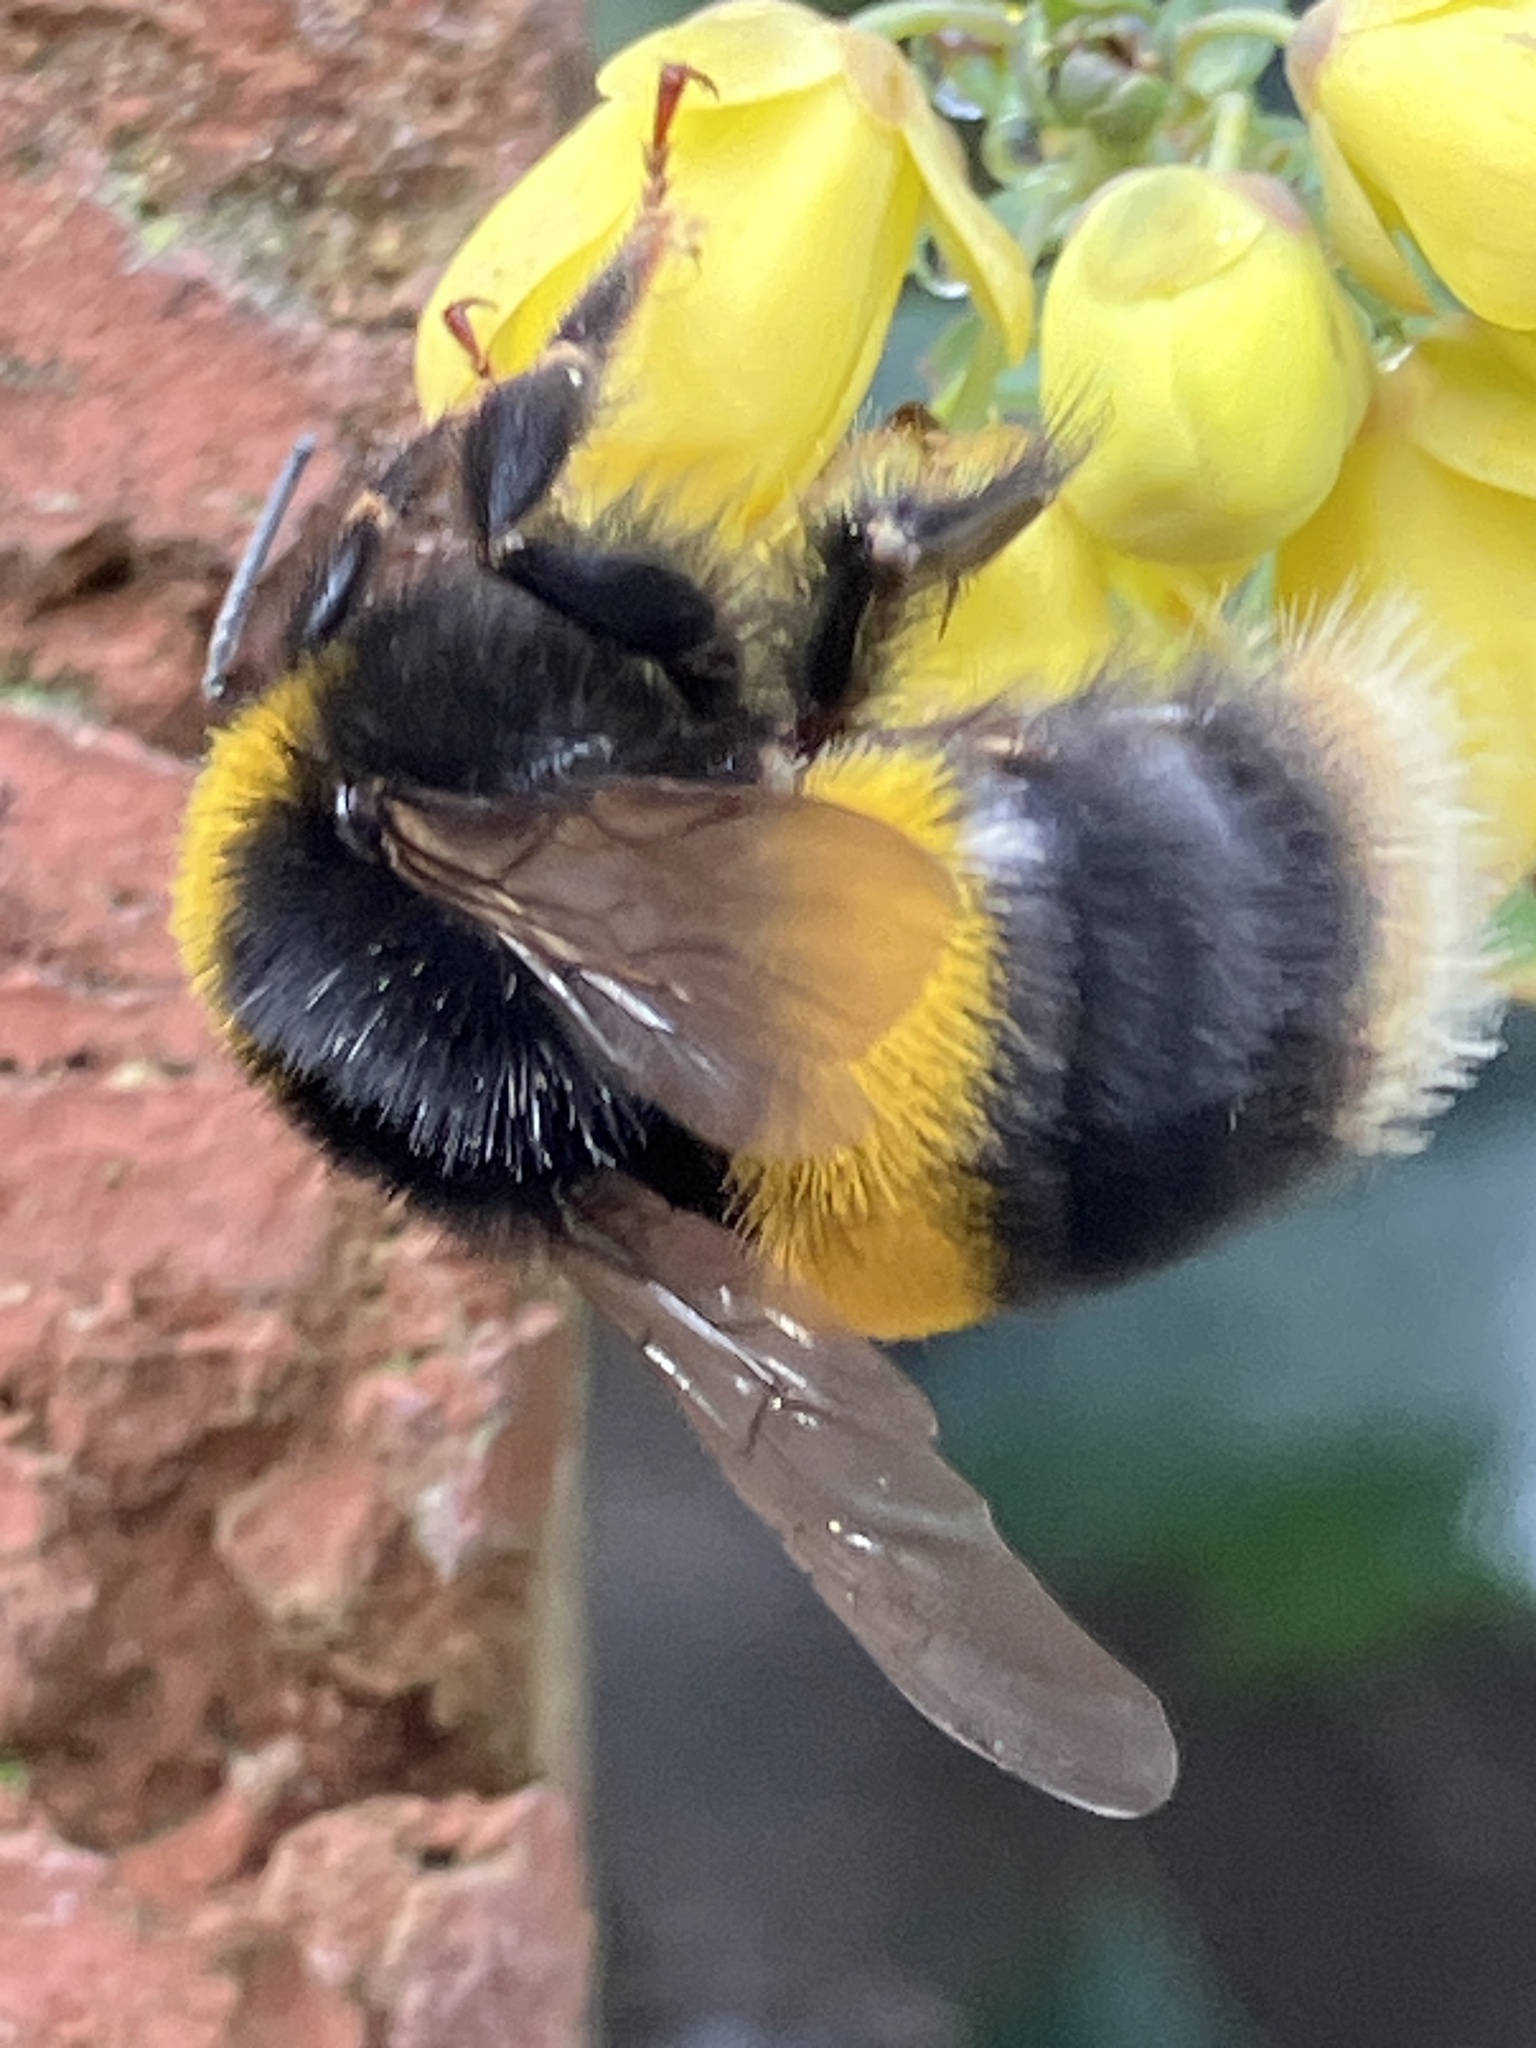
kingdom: Animalia
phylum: Arthropoda
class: Insecta
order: Hymenoptera
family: Apidae
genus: Bombus
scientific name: Bombus terrestris
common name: Buff-tailed bumblebee
